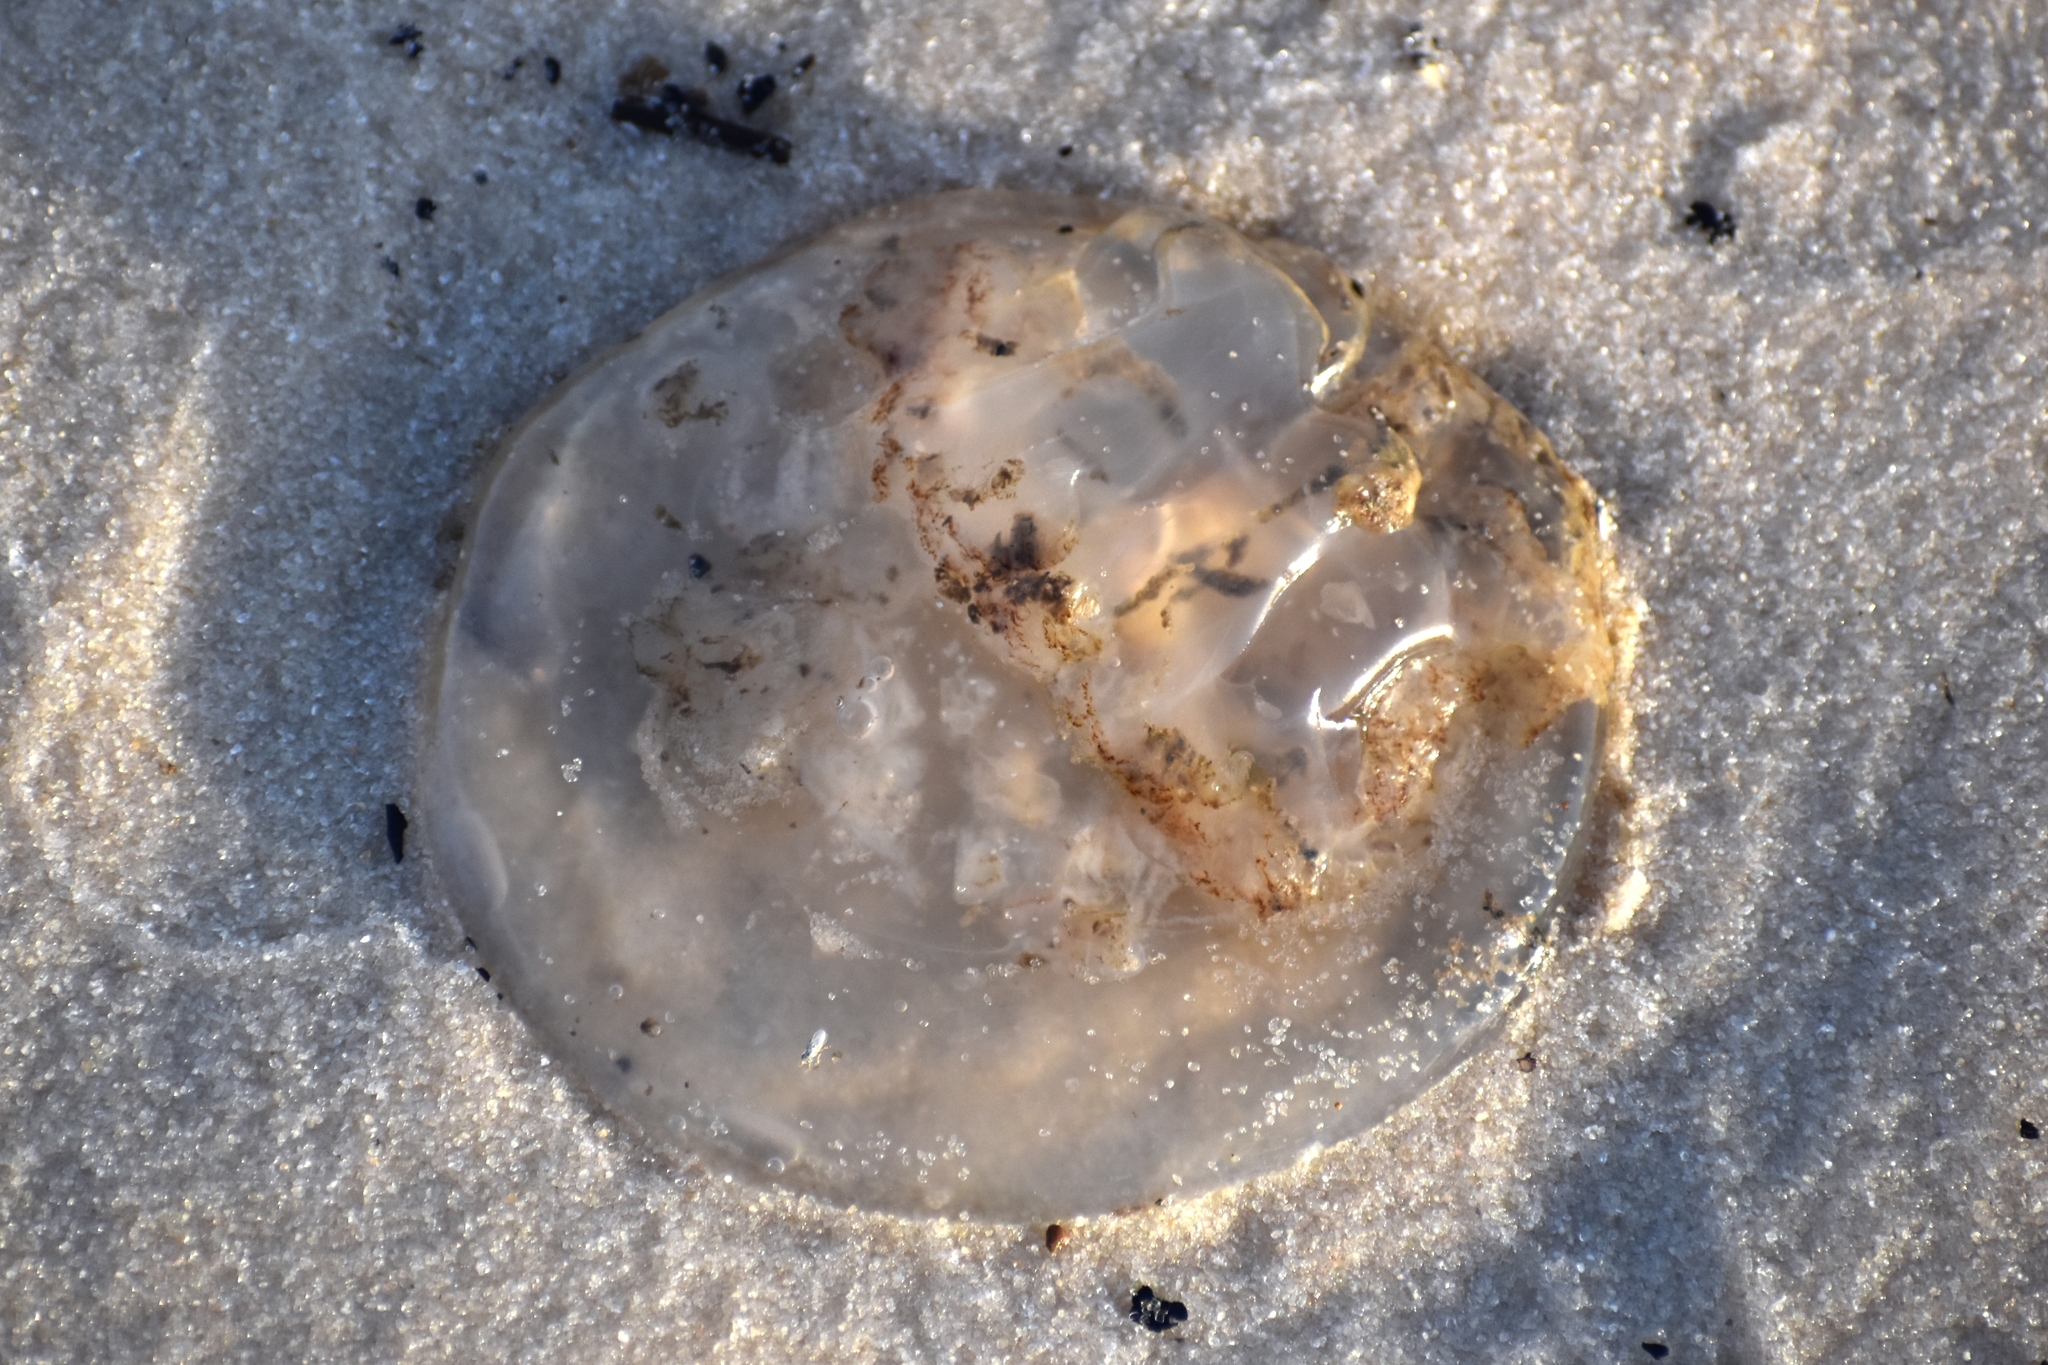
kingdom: Animalia
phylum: Cnidaria
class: Scyphozoa
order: Rhizostomeae
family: Rhizostomatidae
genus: Rhopilema
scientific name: Rhopilema verrilli
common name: Mushroom cap jellyfish
